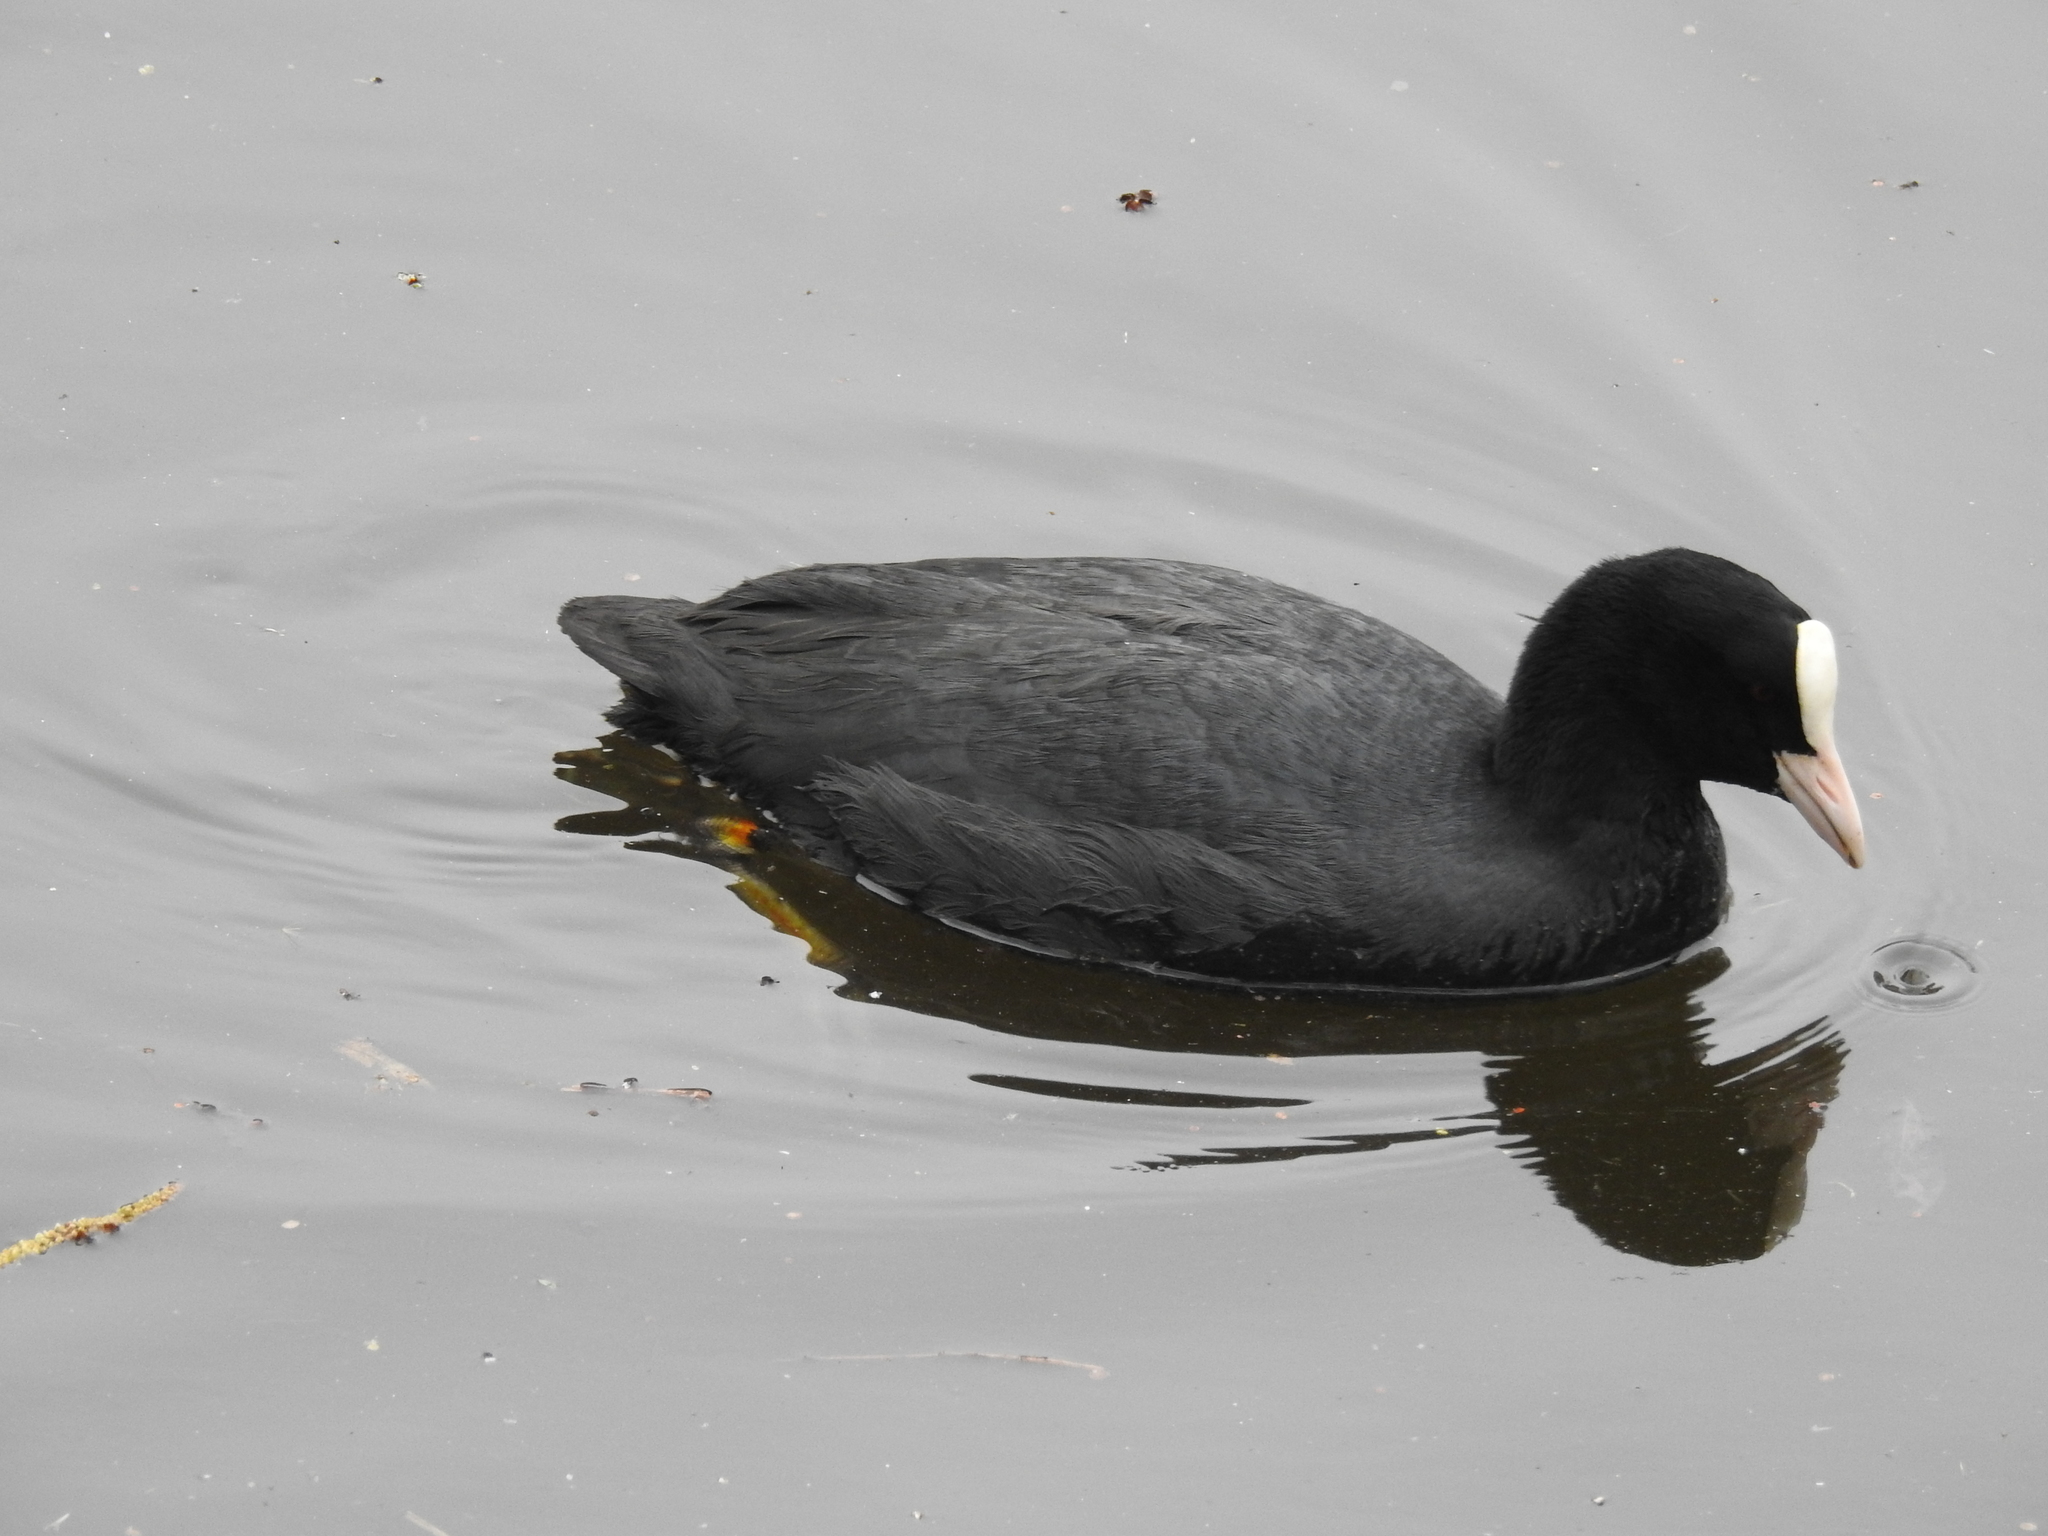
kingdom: Animalia
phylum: Chordata
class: Aves
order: Gruiformes
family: Rallidae
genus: Fulica
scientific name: Fulica atra
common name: Eurasian coot
